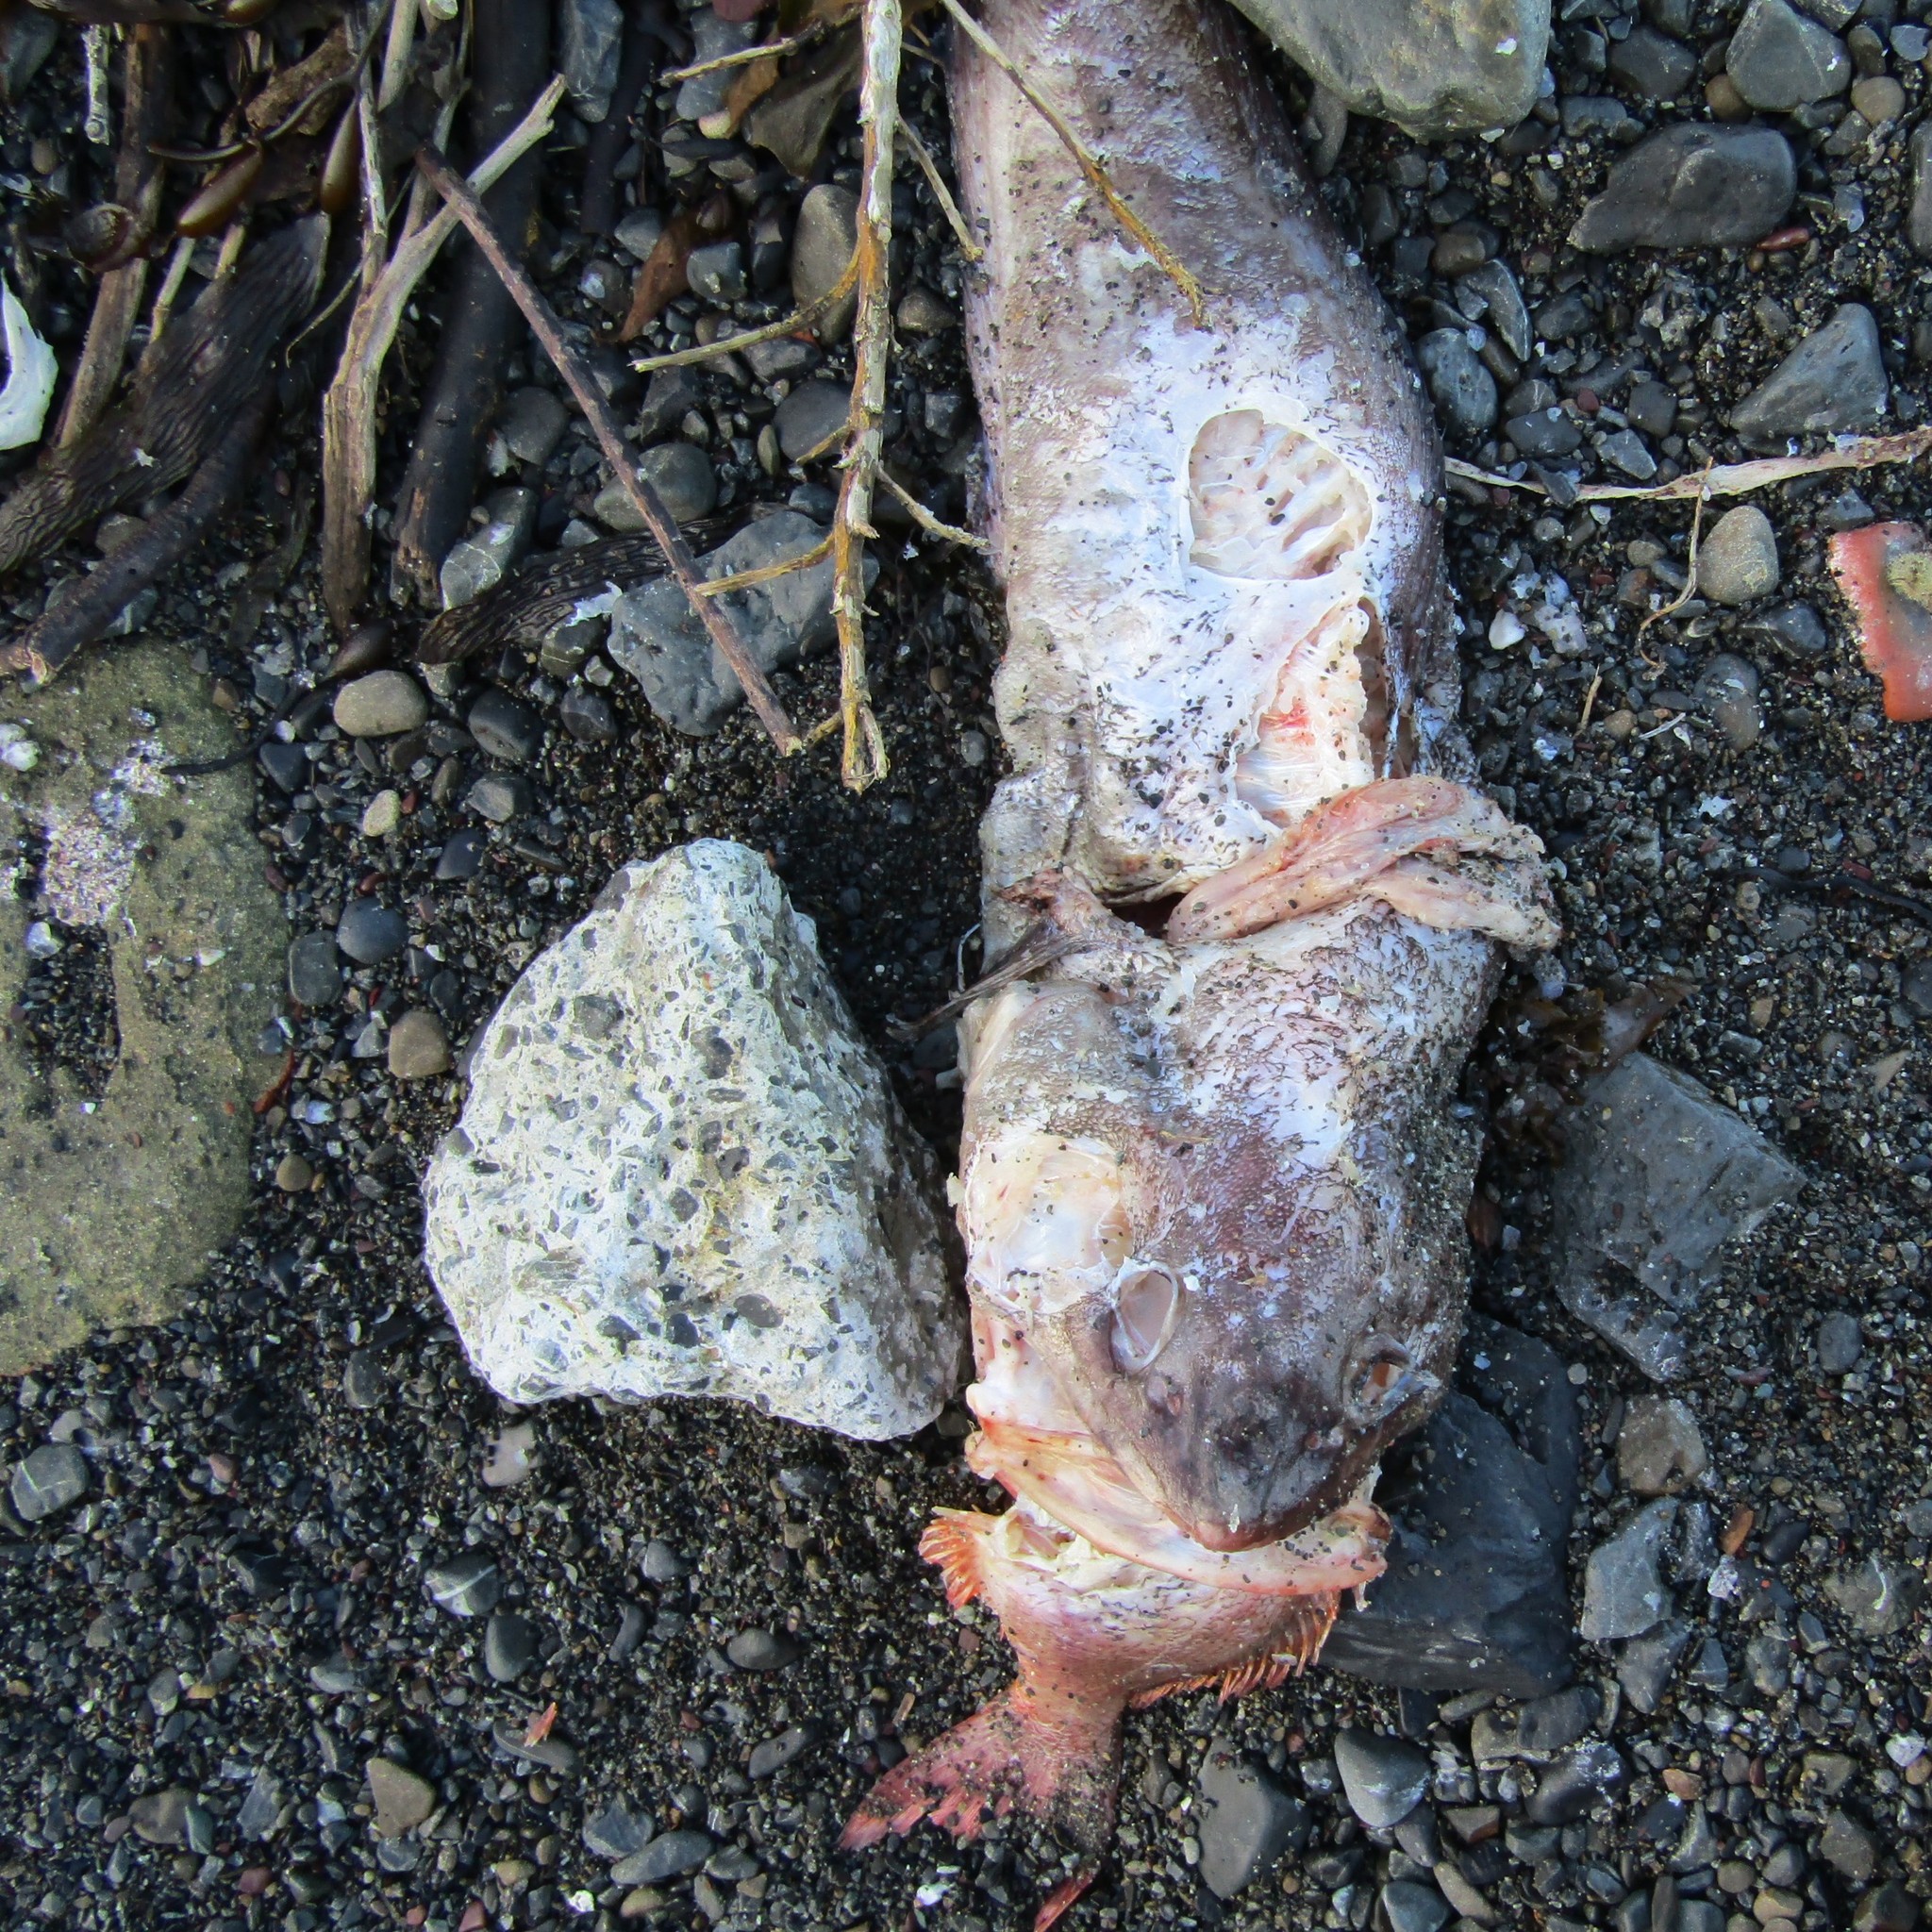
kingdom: Animalia
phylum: Chordata
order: Gadiformes
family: Moridae
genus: Pseudophycis
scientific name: Pseudophycis bachus
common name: Red cod
